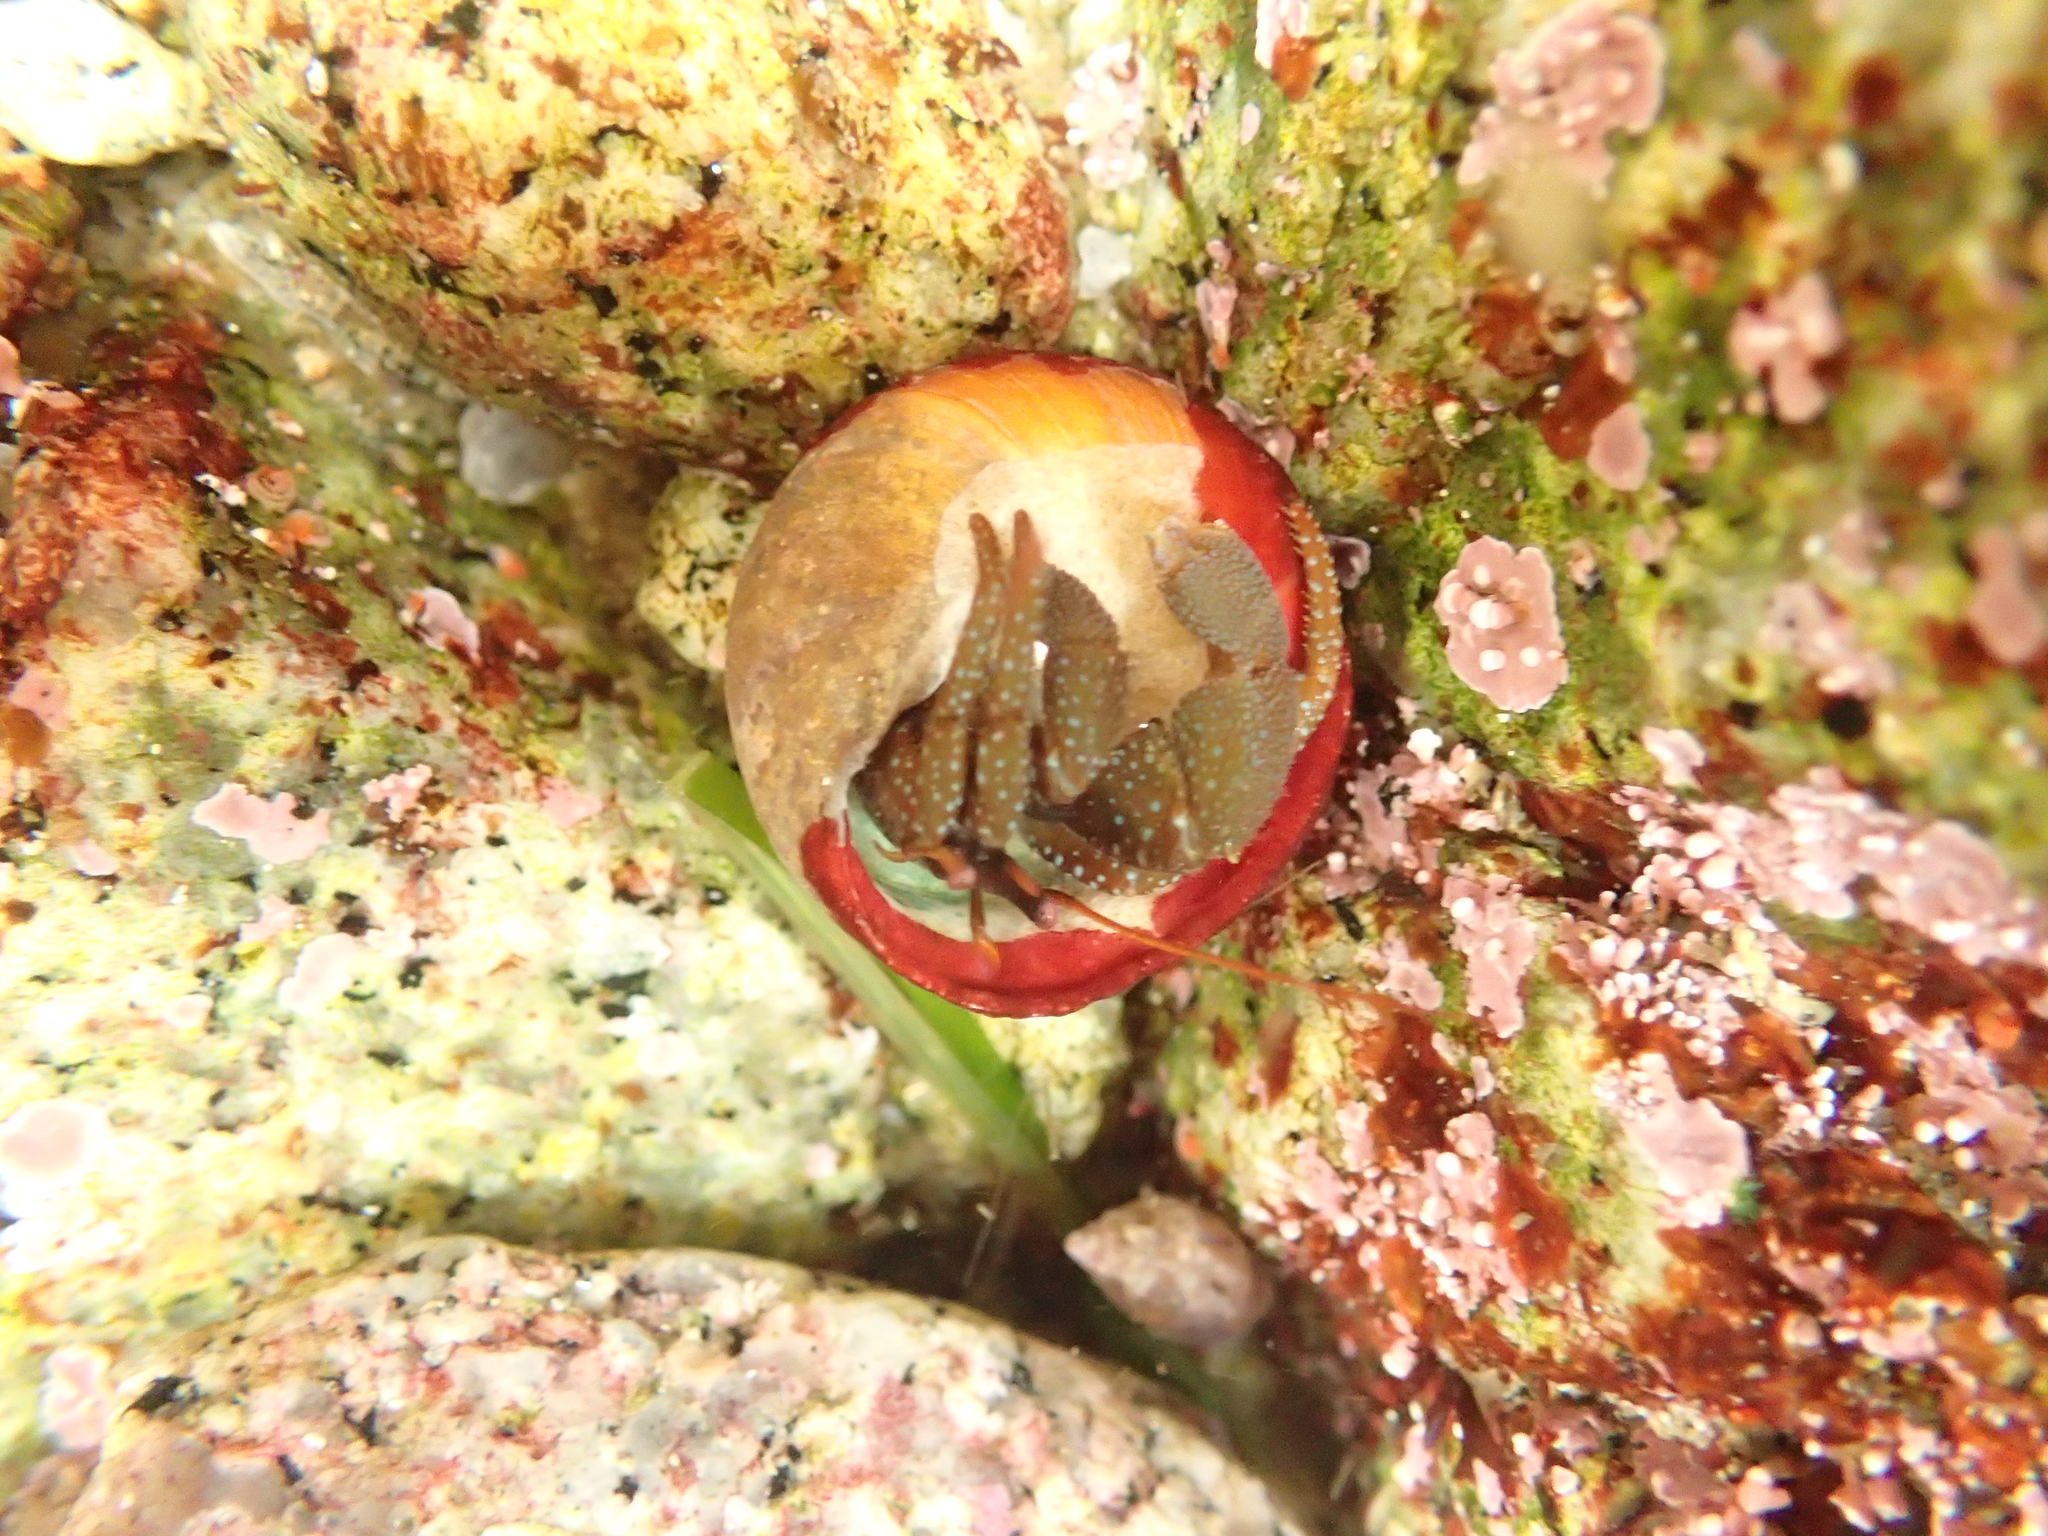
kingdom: Animalia
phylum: Arthropoda
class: Malacostraca
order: Decapoda
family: Paguridae
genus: Pagurus
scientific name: Pagurus granosimanus
